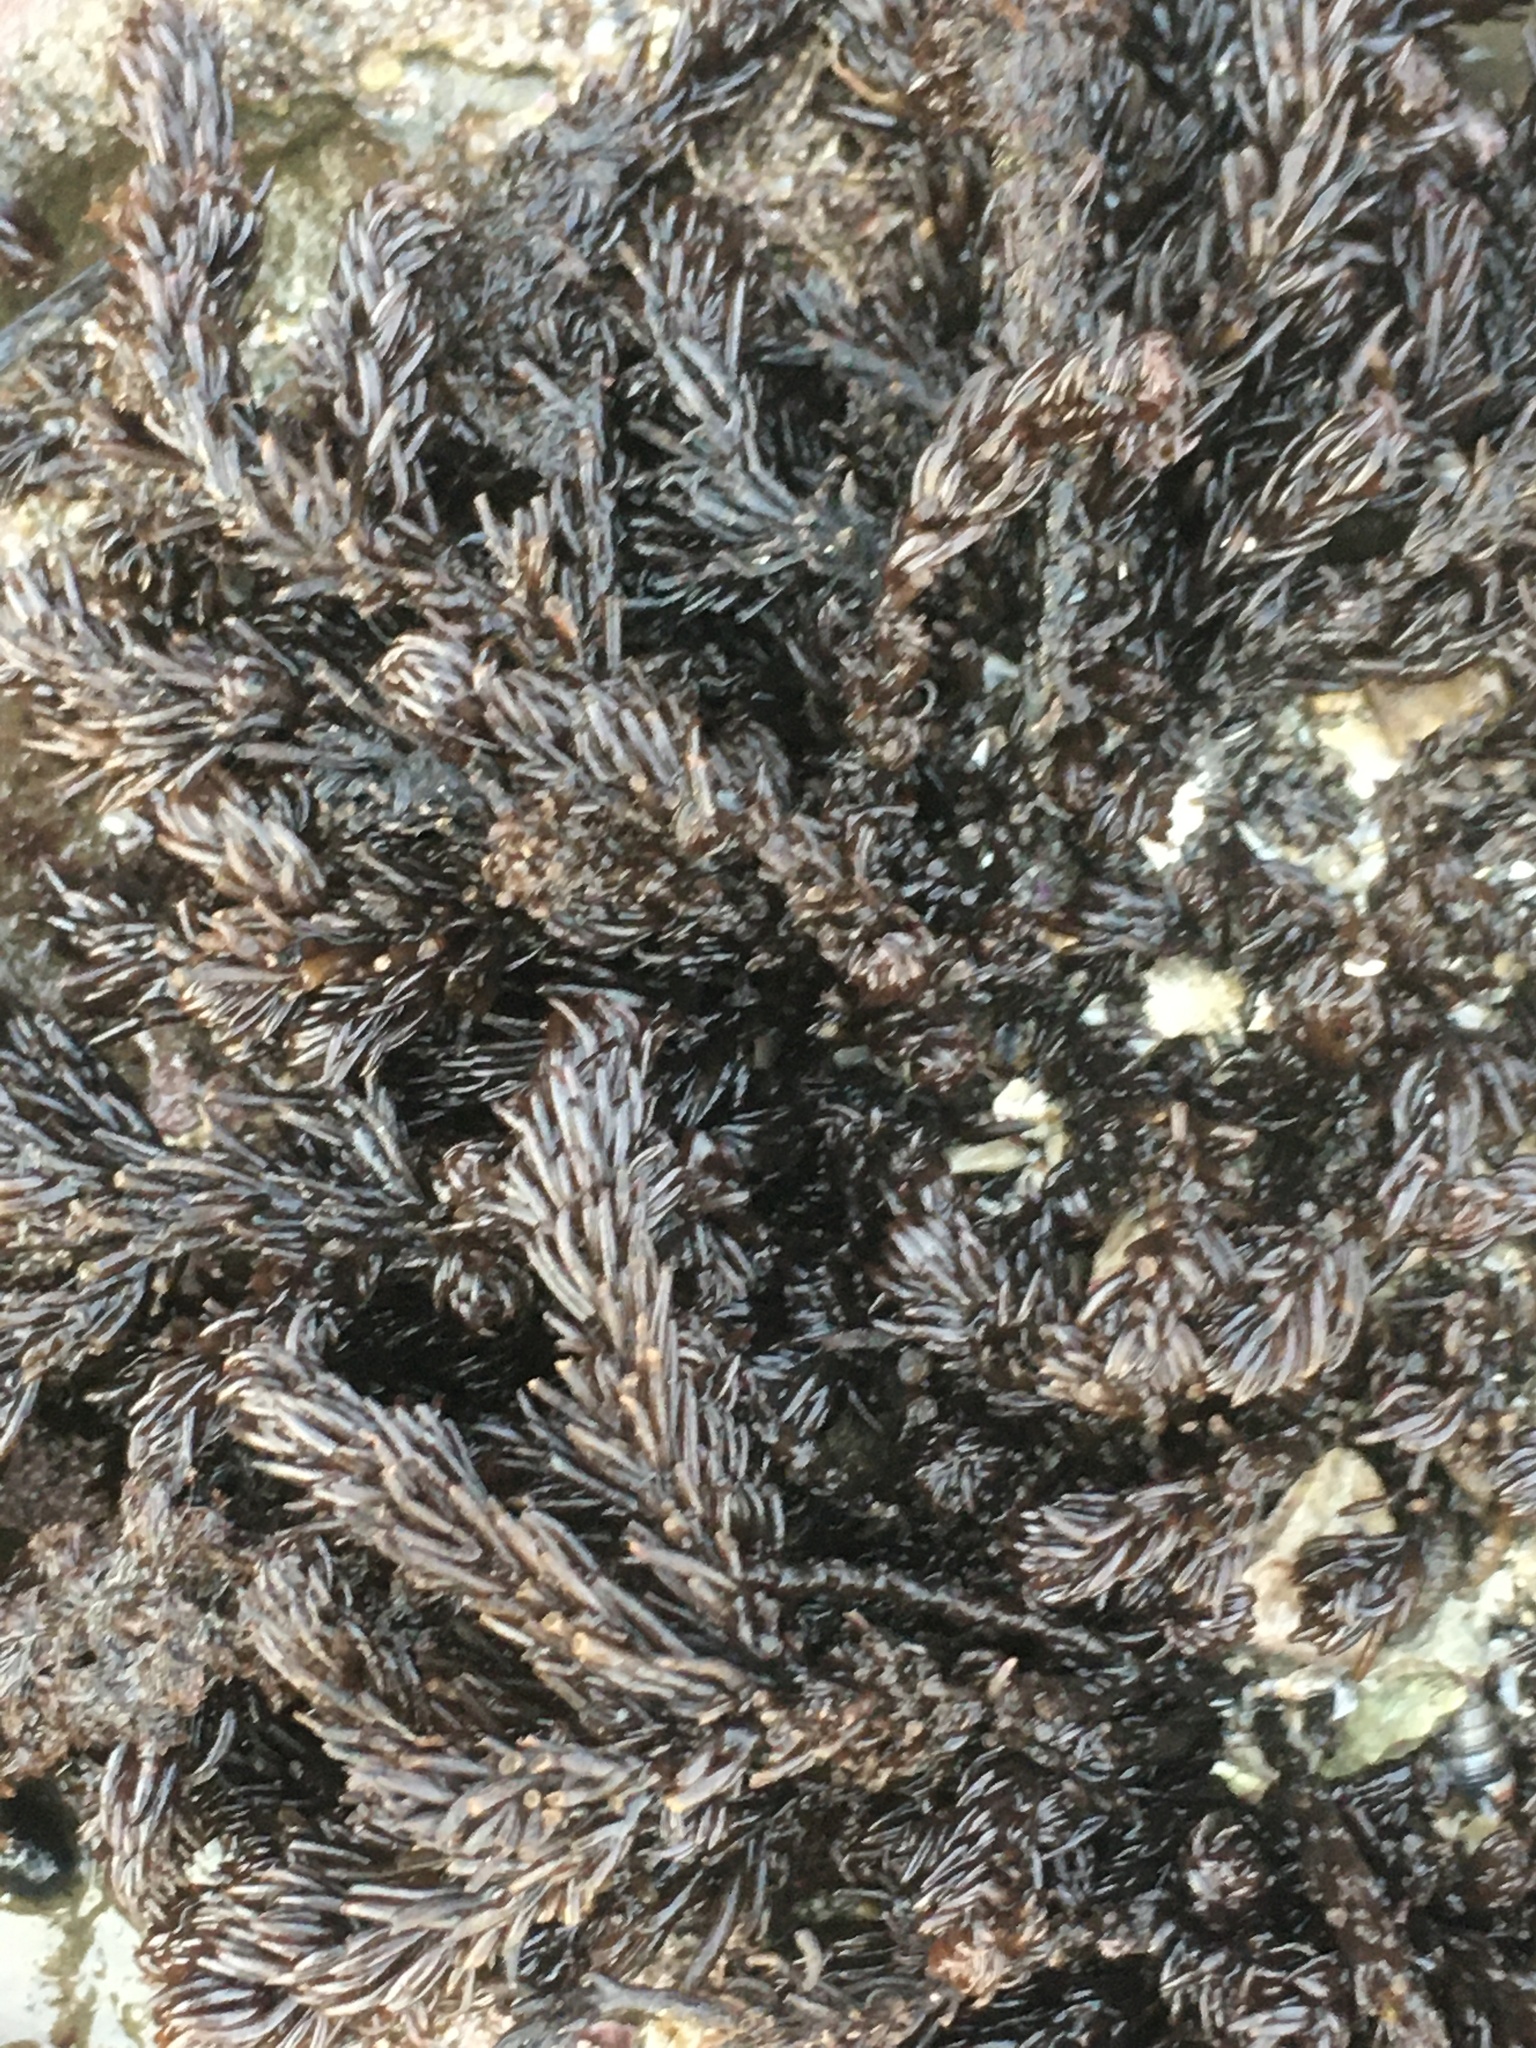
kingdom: Plantae
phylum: Rhodophyta
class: Florideophyceae
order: Ceramiales
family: Rhodomelaceae
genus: Neorhodomela
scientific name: Neorhodomela larix
